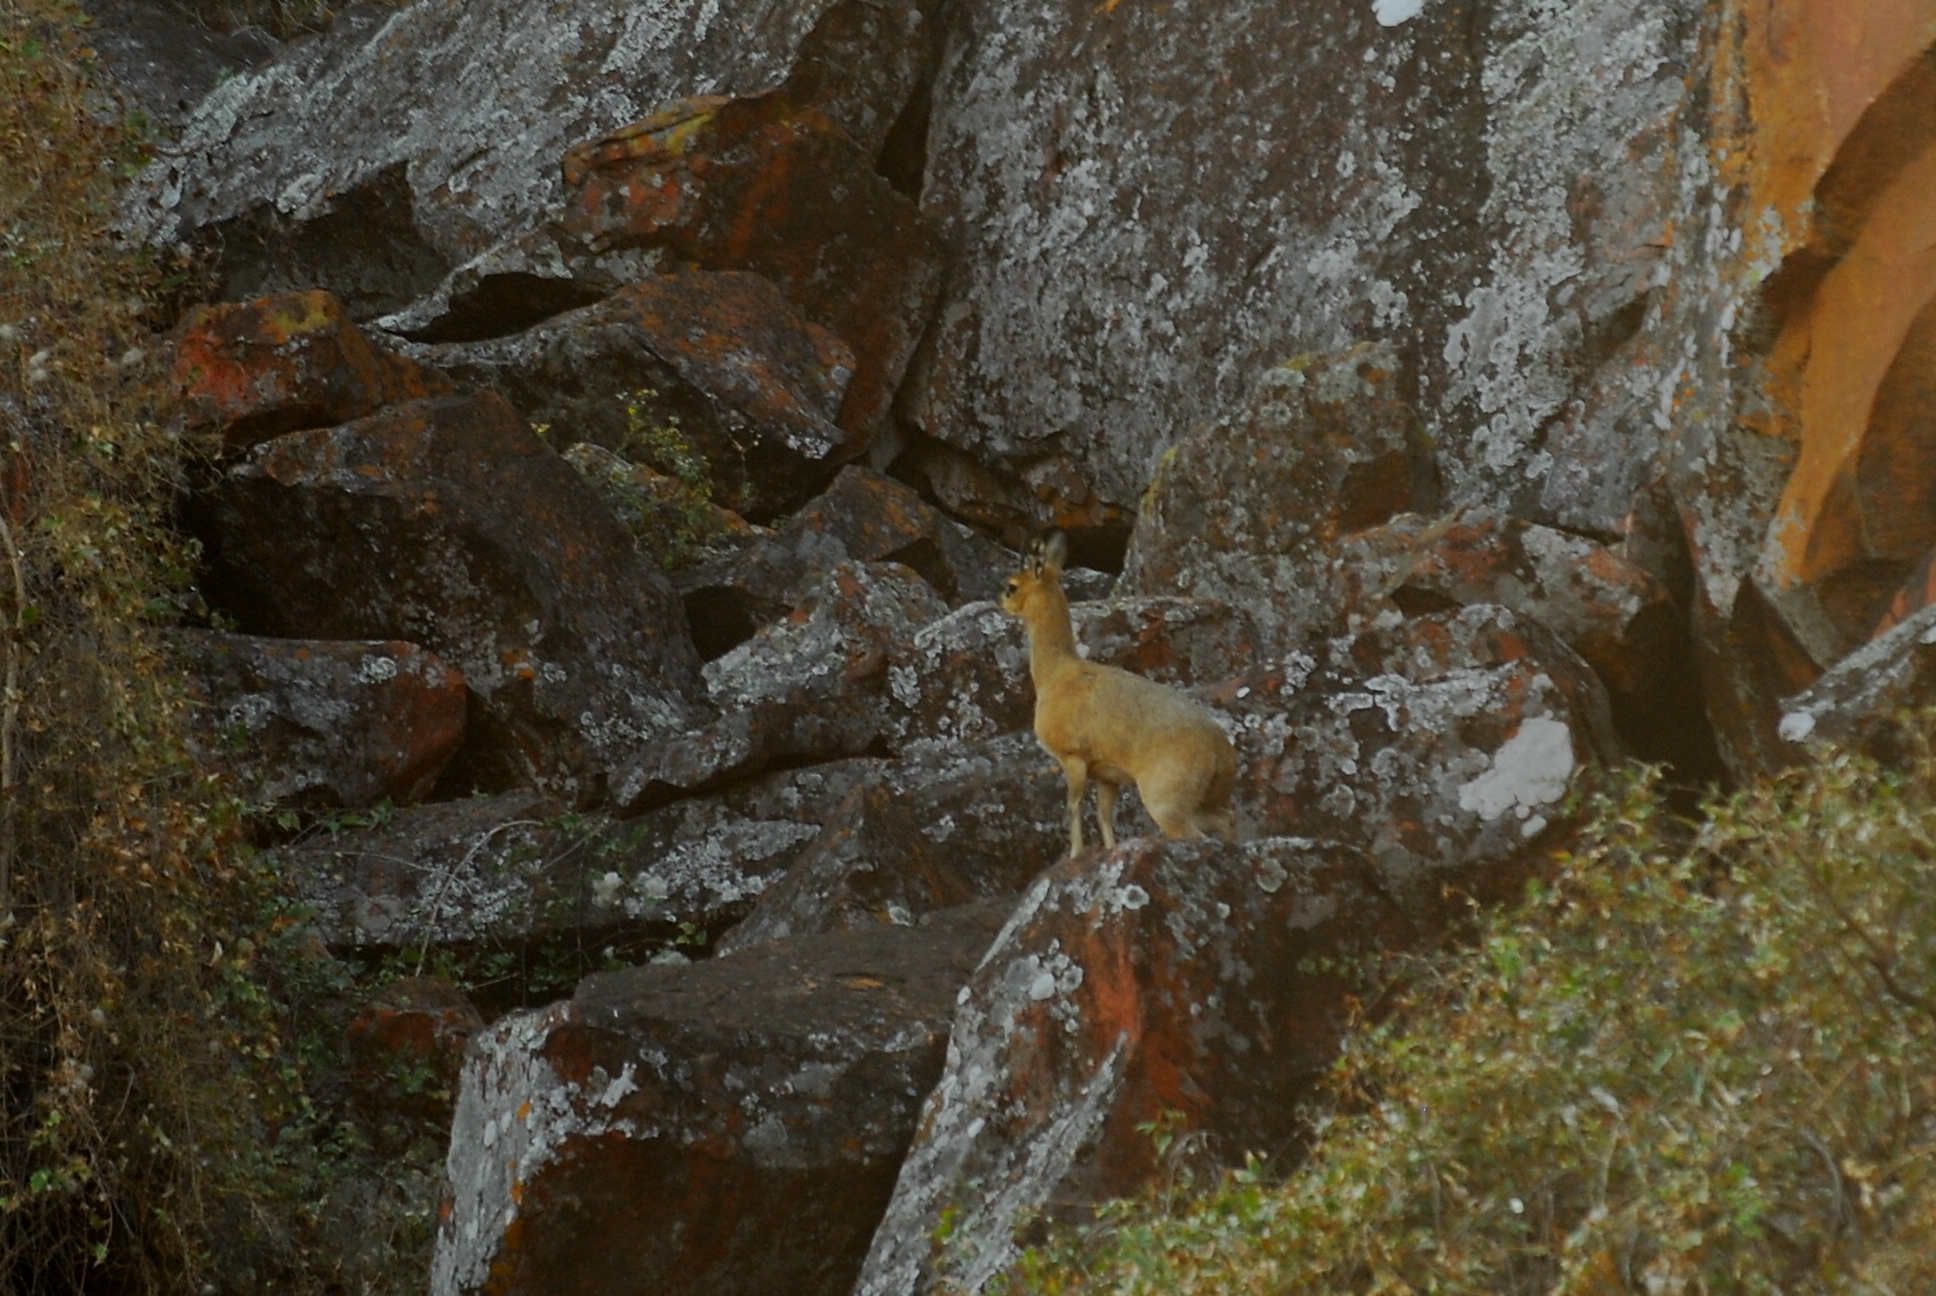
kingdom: Animalia
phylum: Chordata
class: Mammalia
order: Artiodactyla
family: Bovidae
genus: Oreotragus
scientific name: Oreotragus oreotragus
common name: Klipspringer
